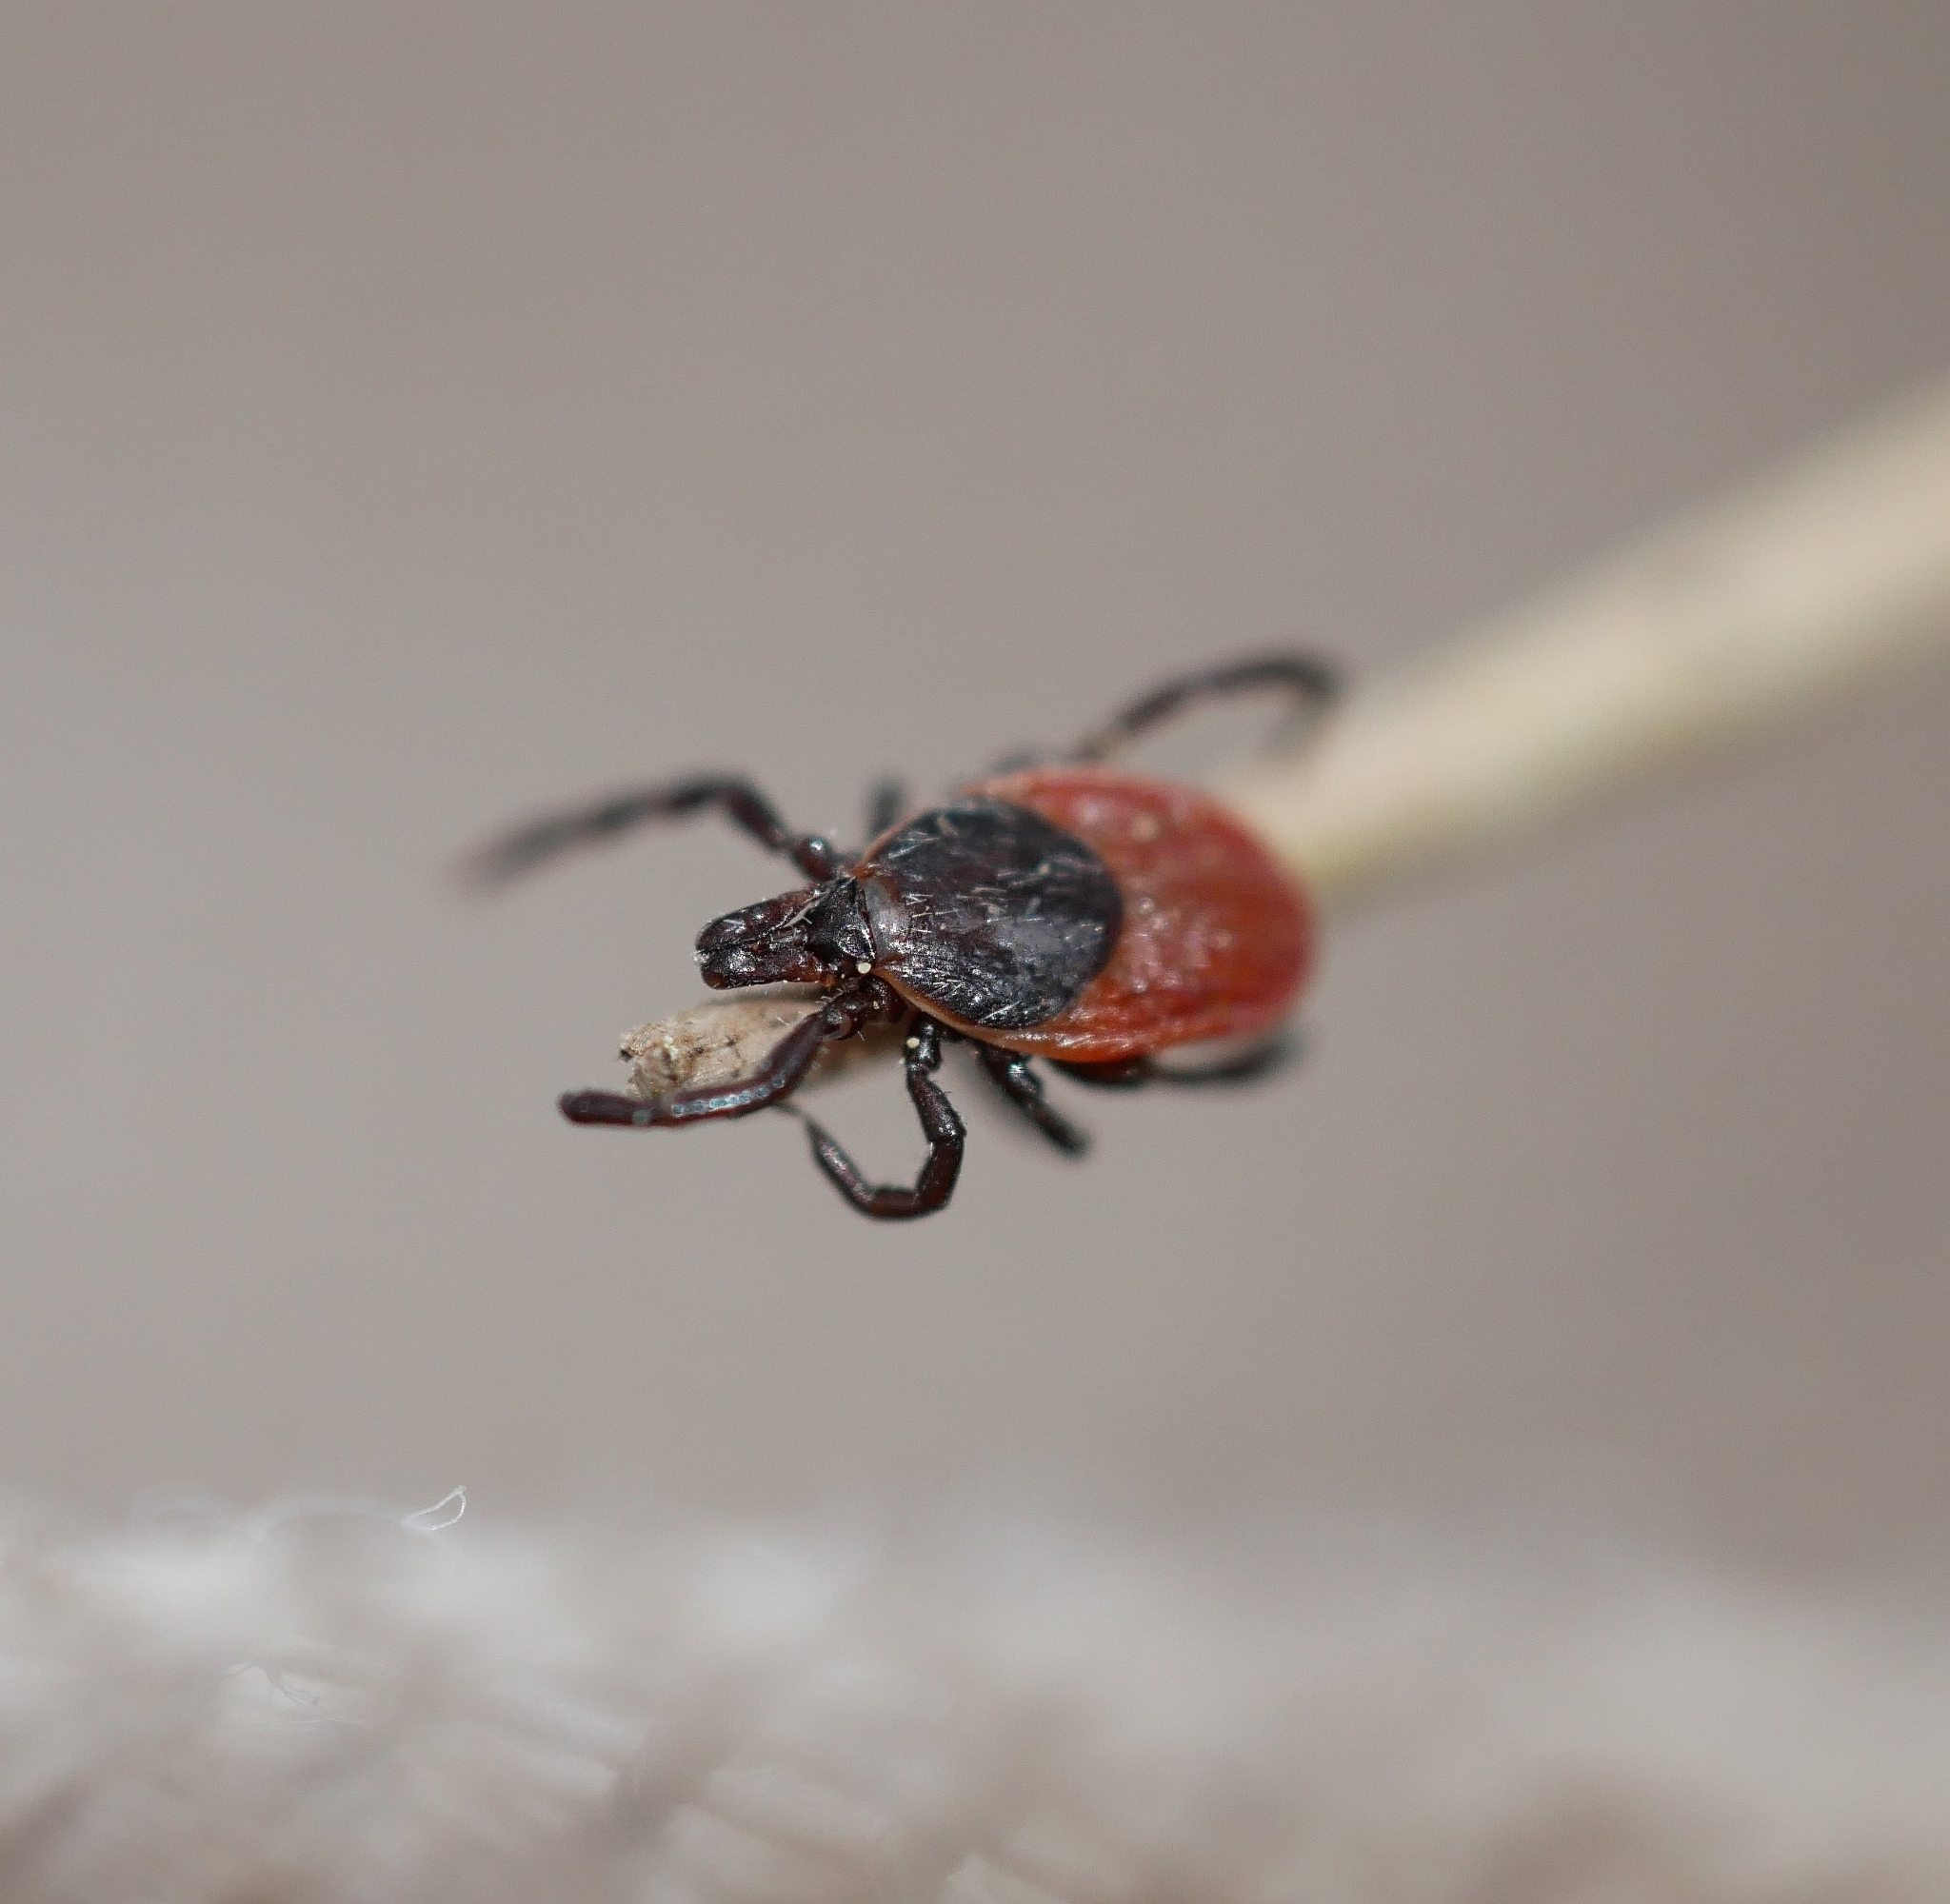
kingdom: Animalia
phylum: Arthropoda
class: Arachnida
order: Ixodida
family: Ixodidae
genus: Ixodes
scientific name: Ixodes pacificus
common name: California black-legged tick
